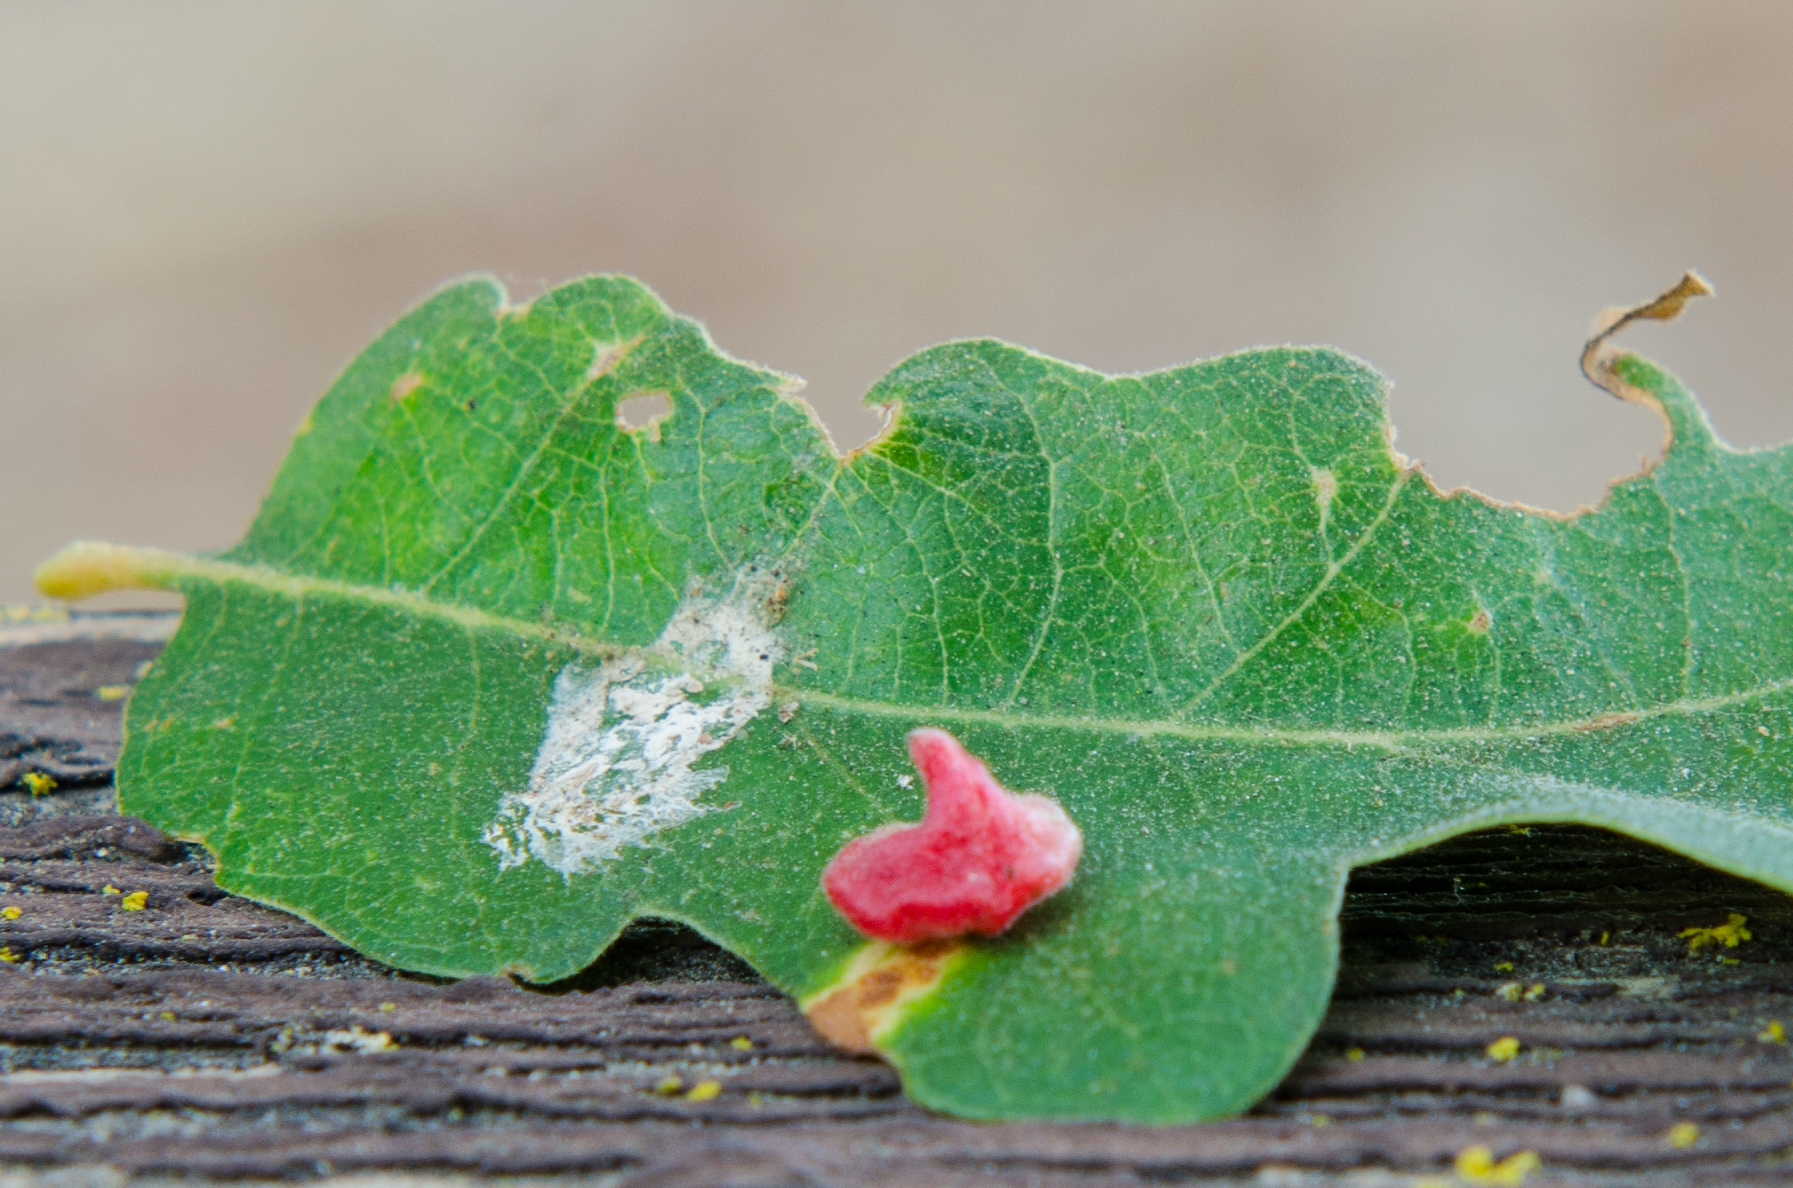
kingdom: Animalia
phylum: Arthropoda
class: Insecta
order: Hymenoptera
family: Cynipidae
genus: Andricus
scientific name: Andricus
